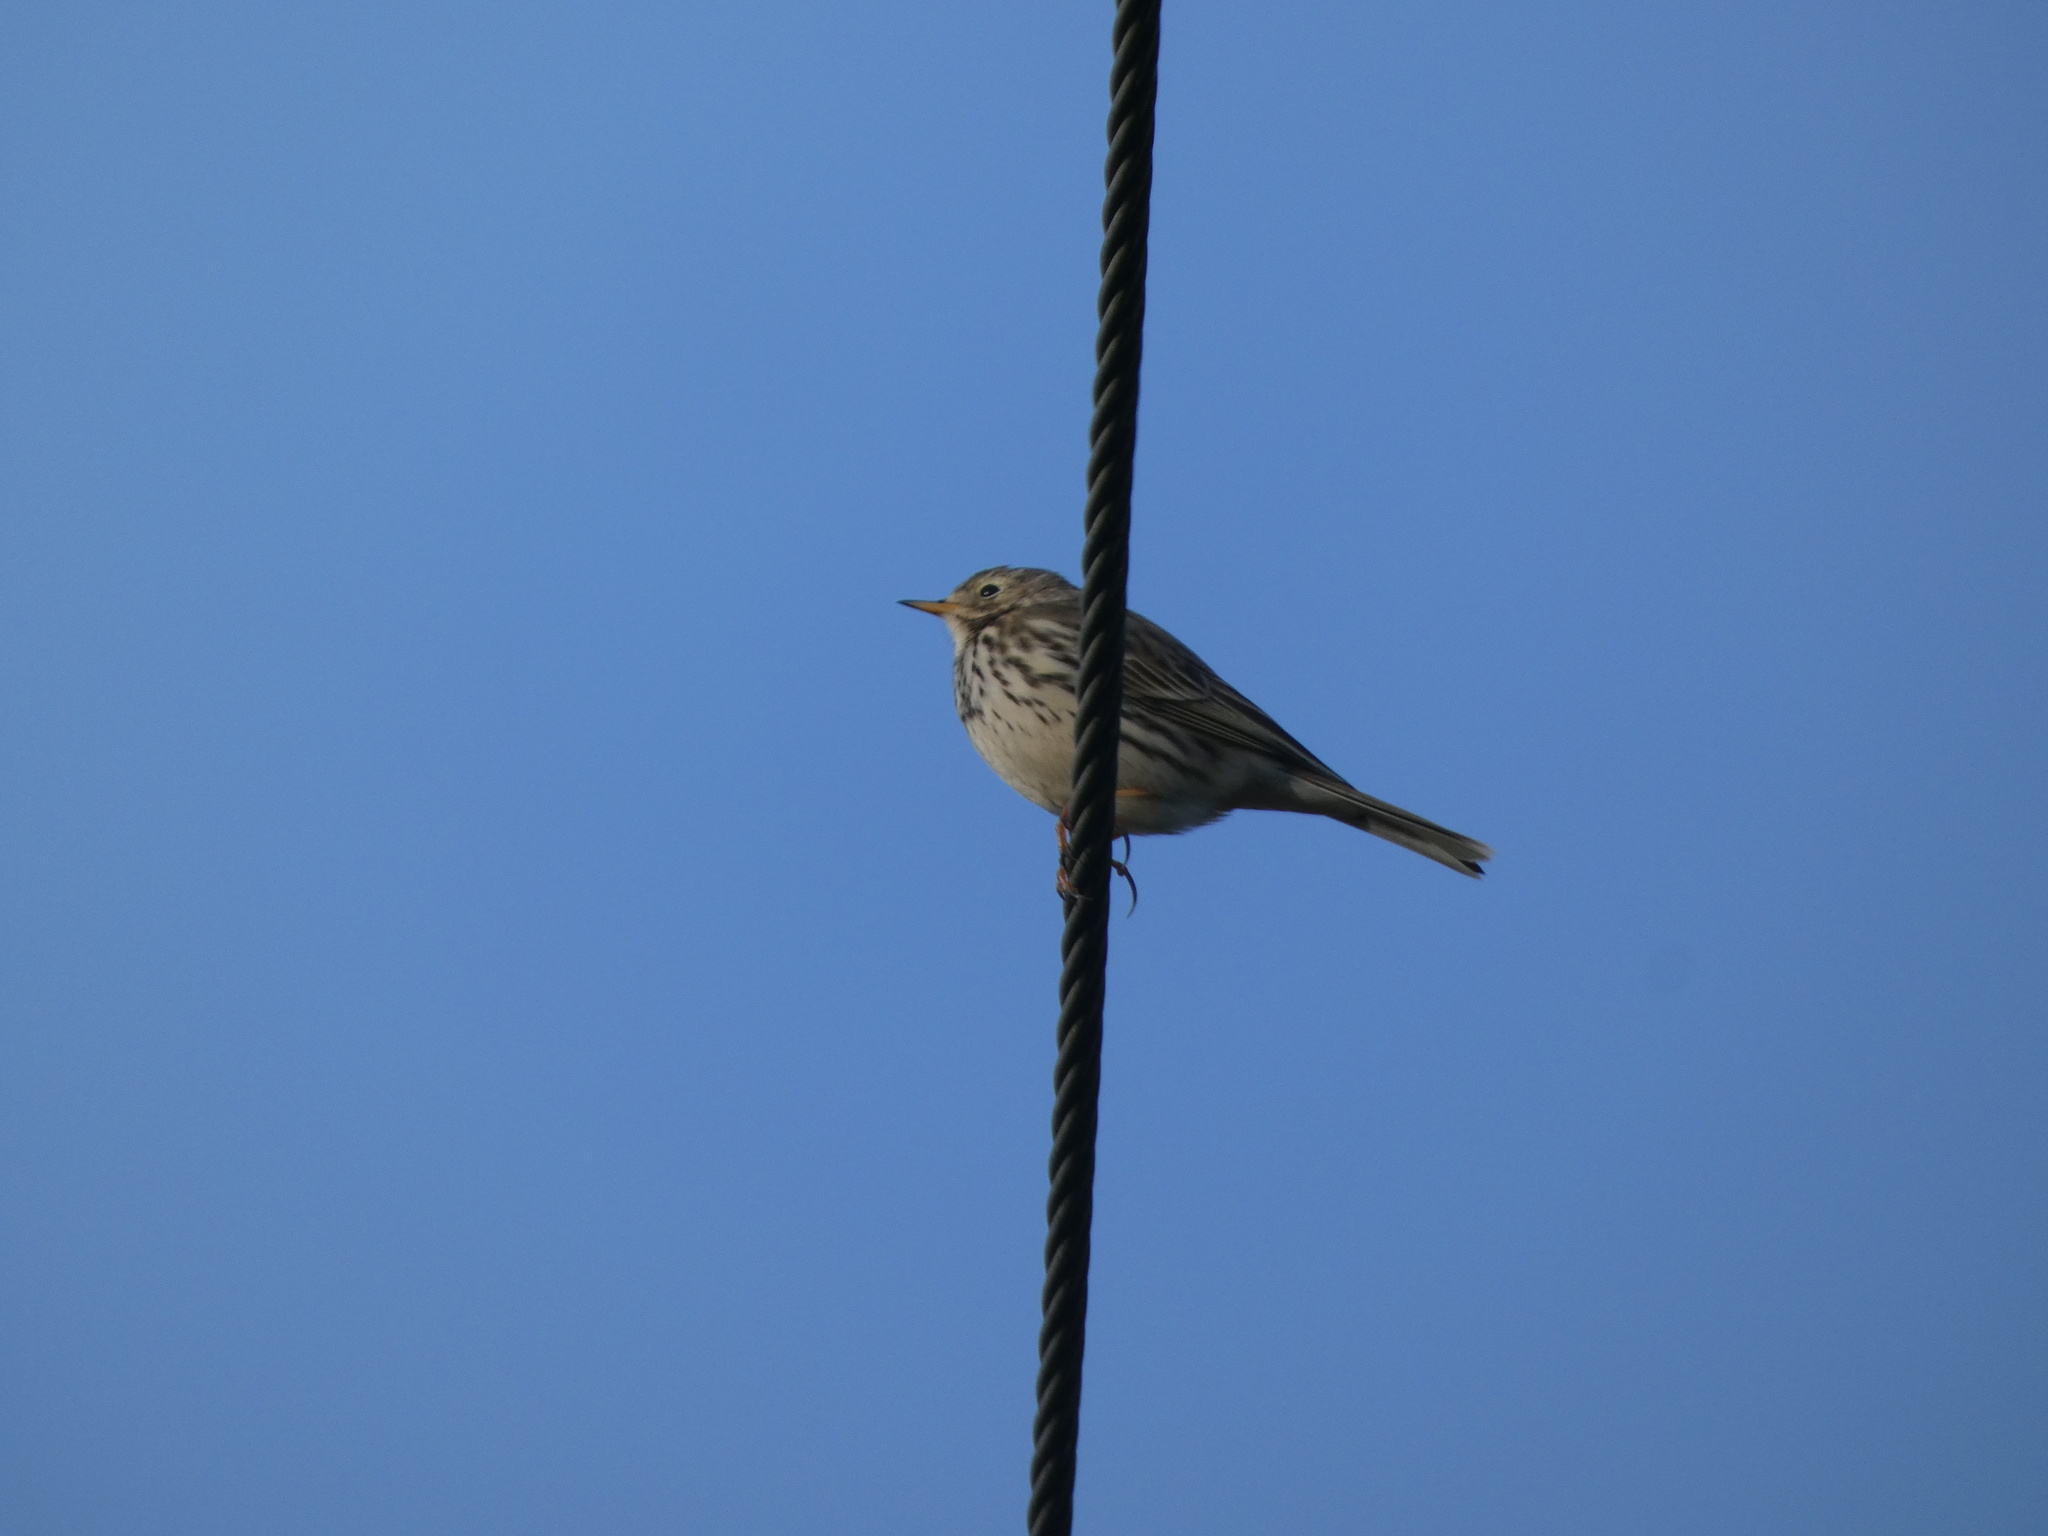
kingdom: Animalia
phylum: Chordata
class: Aves
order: Passeriformes
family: Motacillidae
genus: Anthus
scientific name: Anthus pratensis
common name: Meadow pipit
